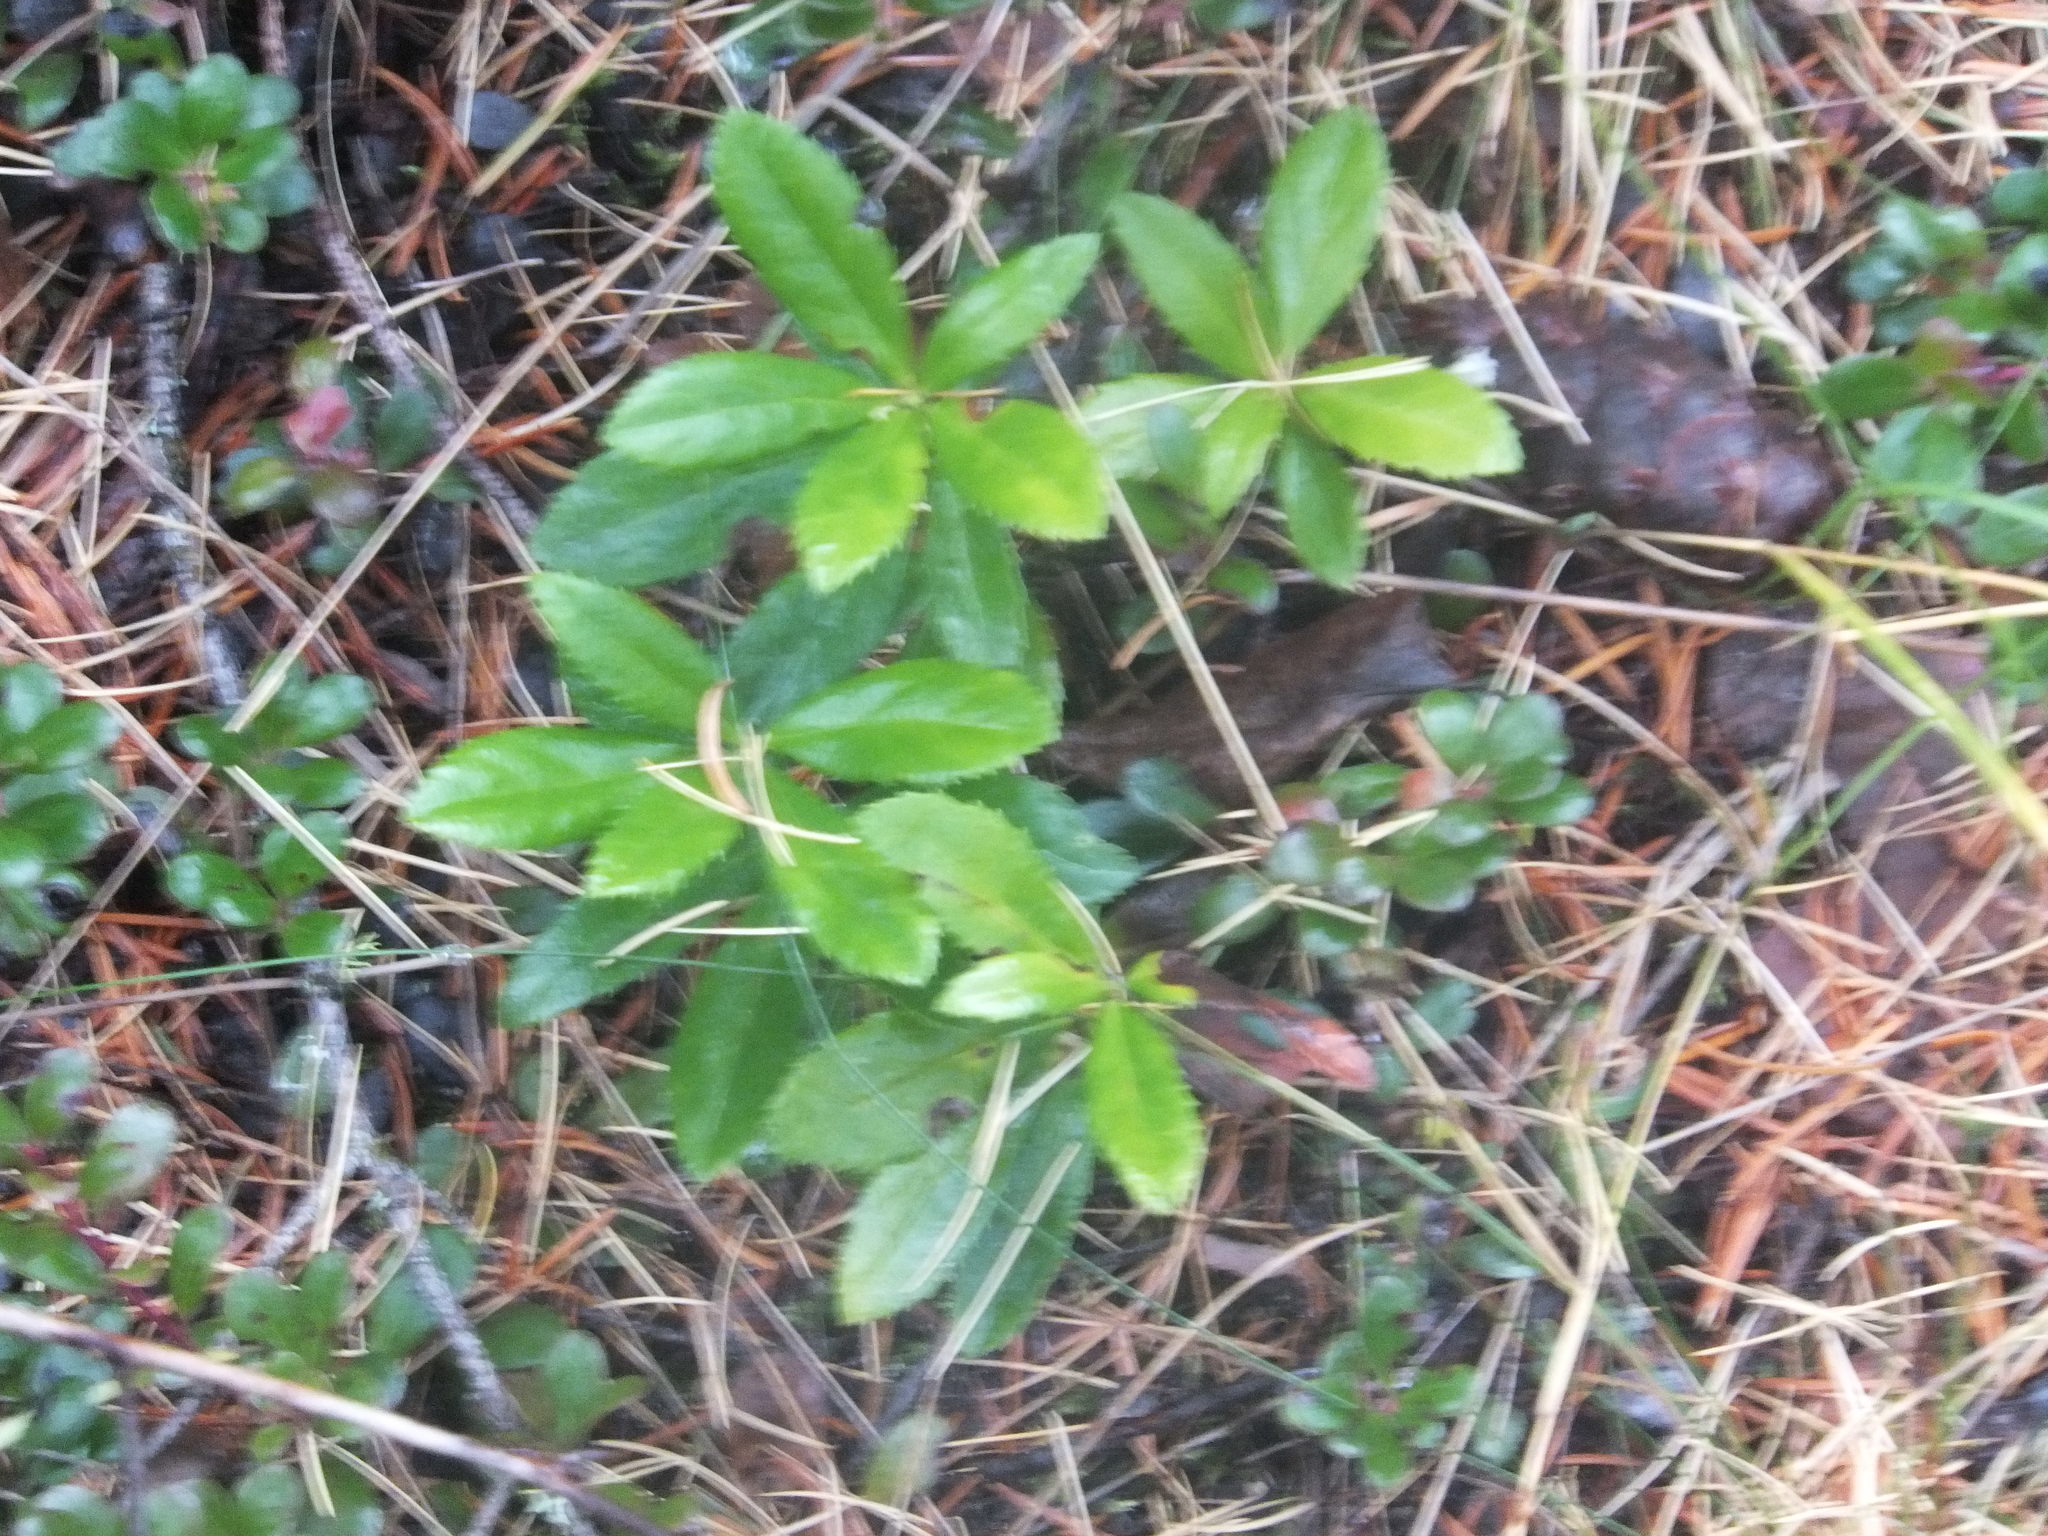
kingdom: Plantae
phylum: Tracheophyta
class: Magnoliopsida
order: Ericales
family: Ericaceae
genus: Chimaphila
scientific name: Chimaphila umbellata
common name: Pipsissewa
